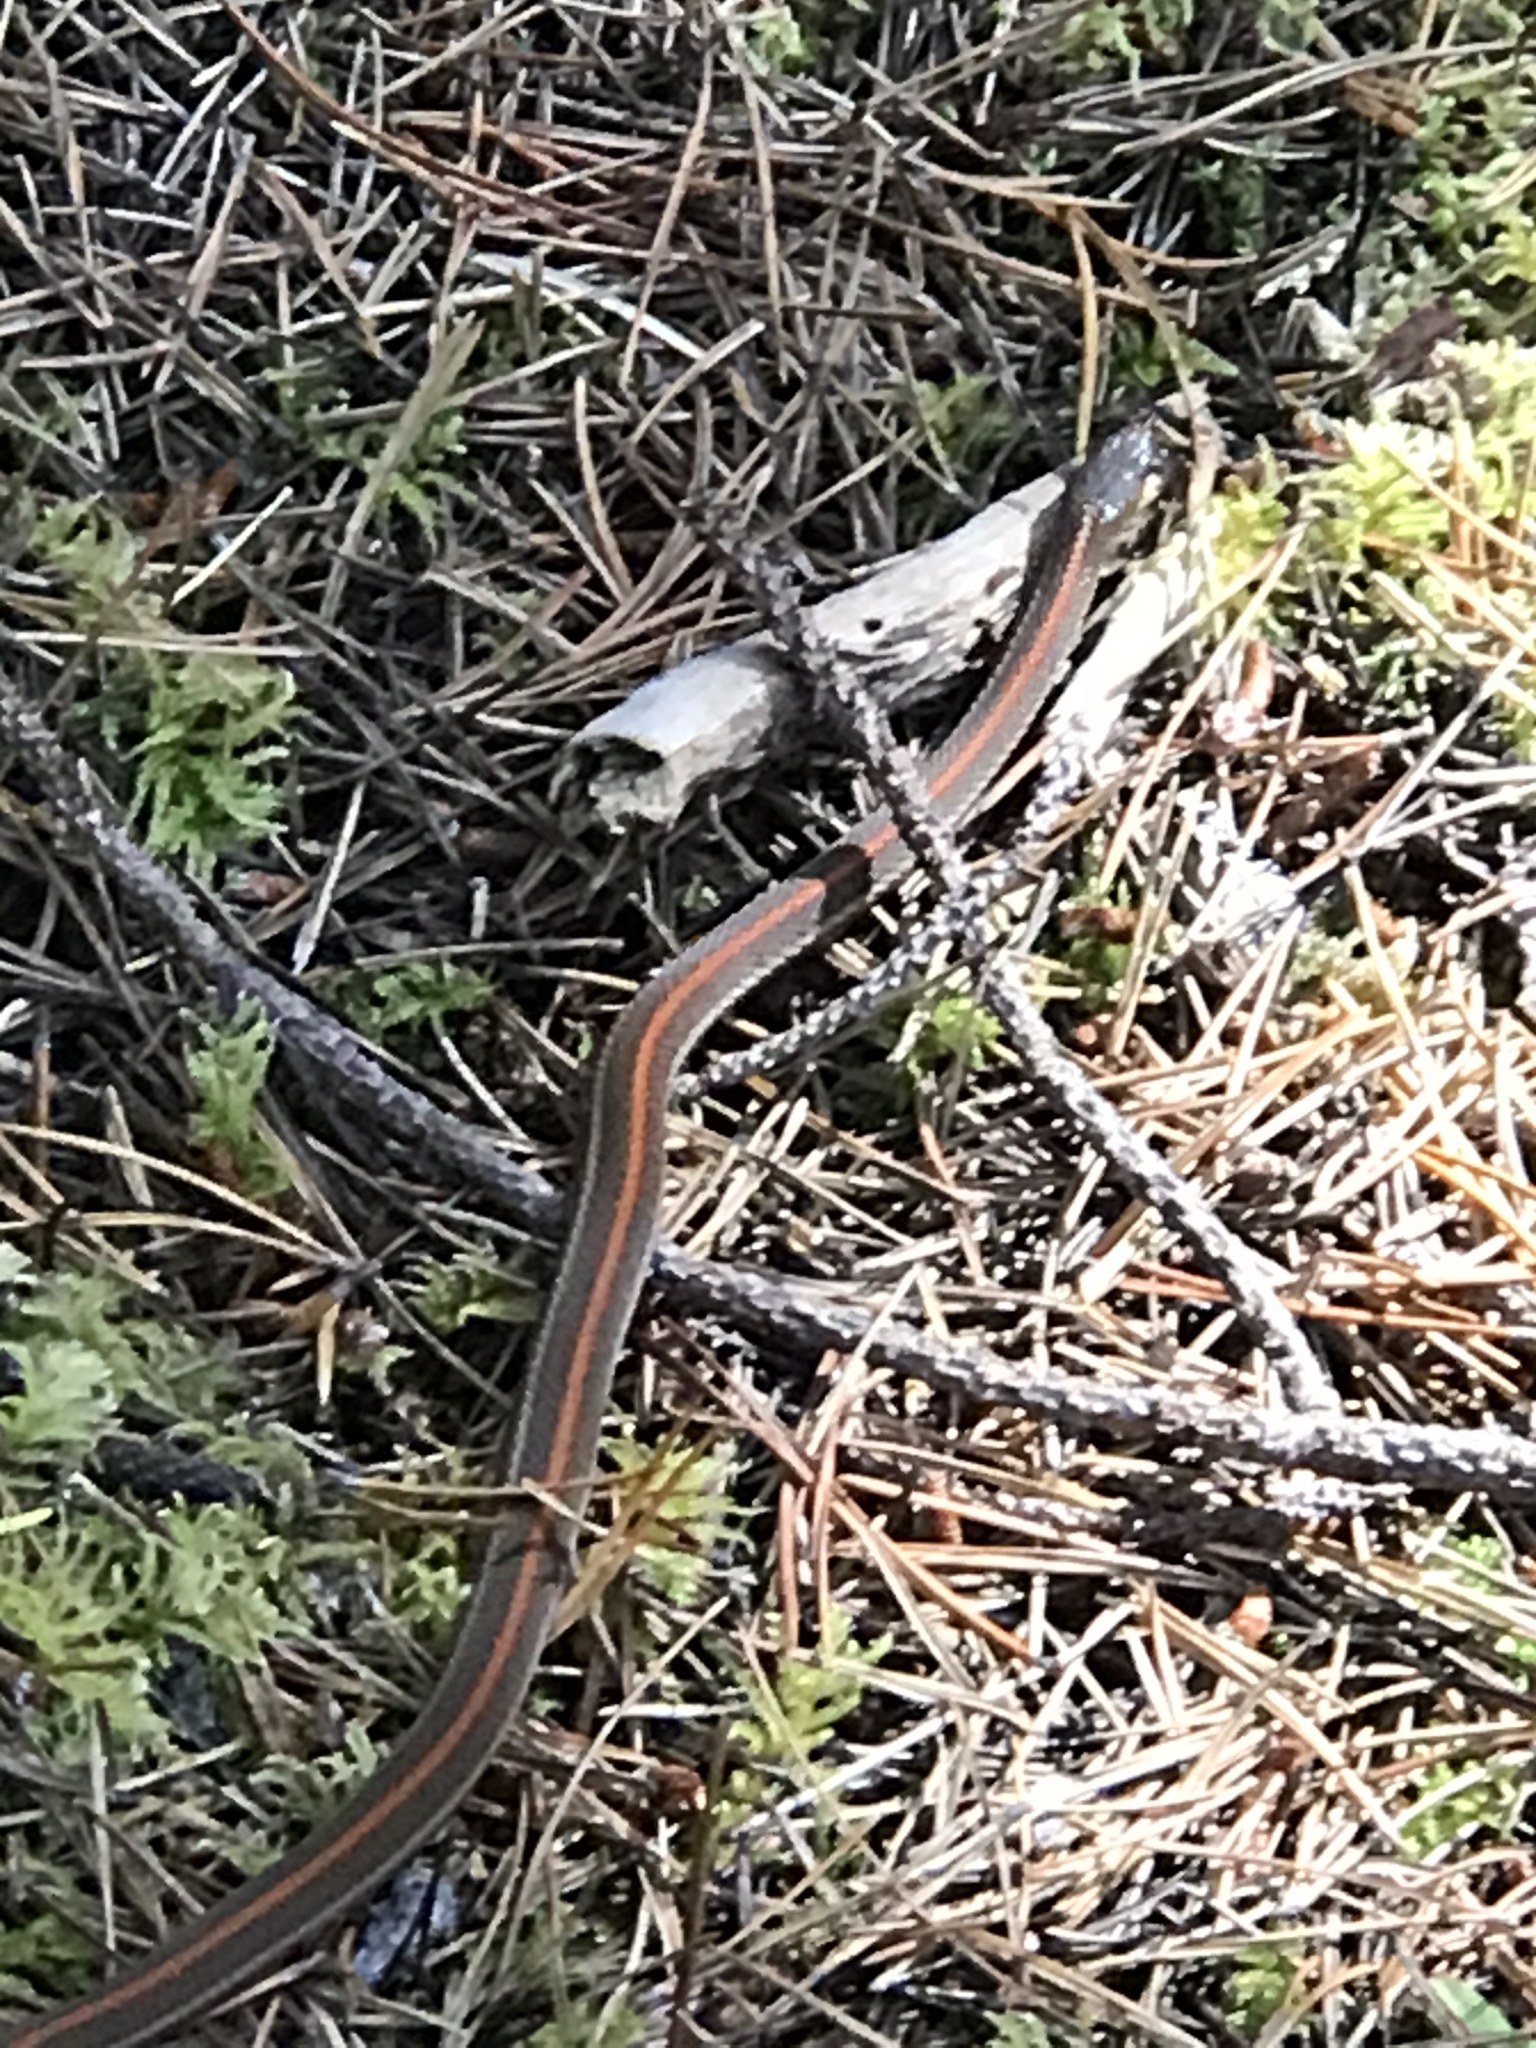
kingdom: Animalia
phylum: Chordata
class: Squamata
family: Colubridae
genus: Thamnophis
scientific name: Thamnophis ordinoides
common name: Northwestern garter snake
